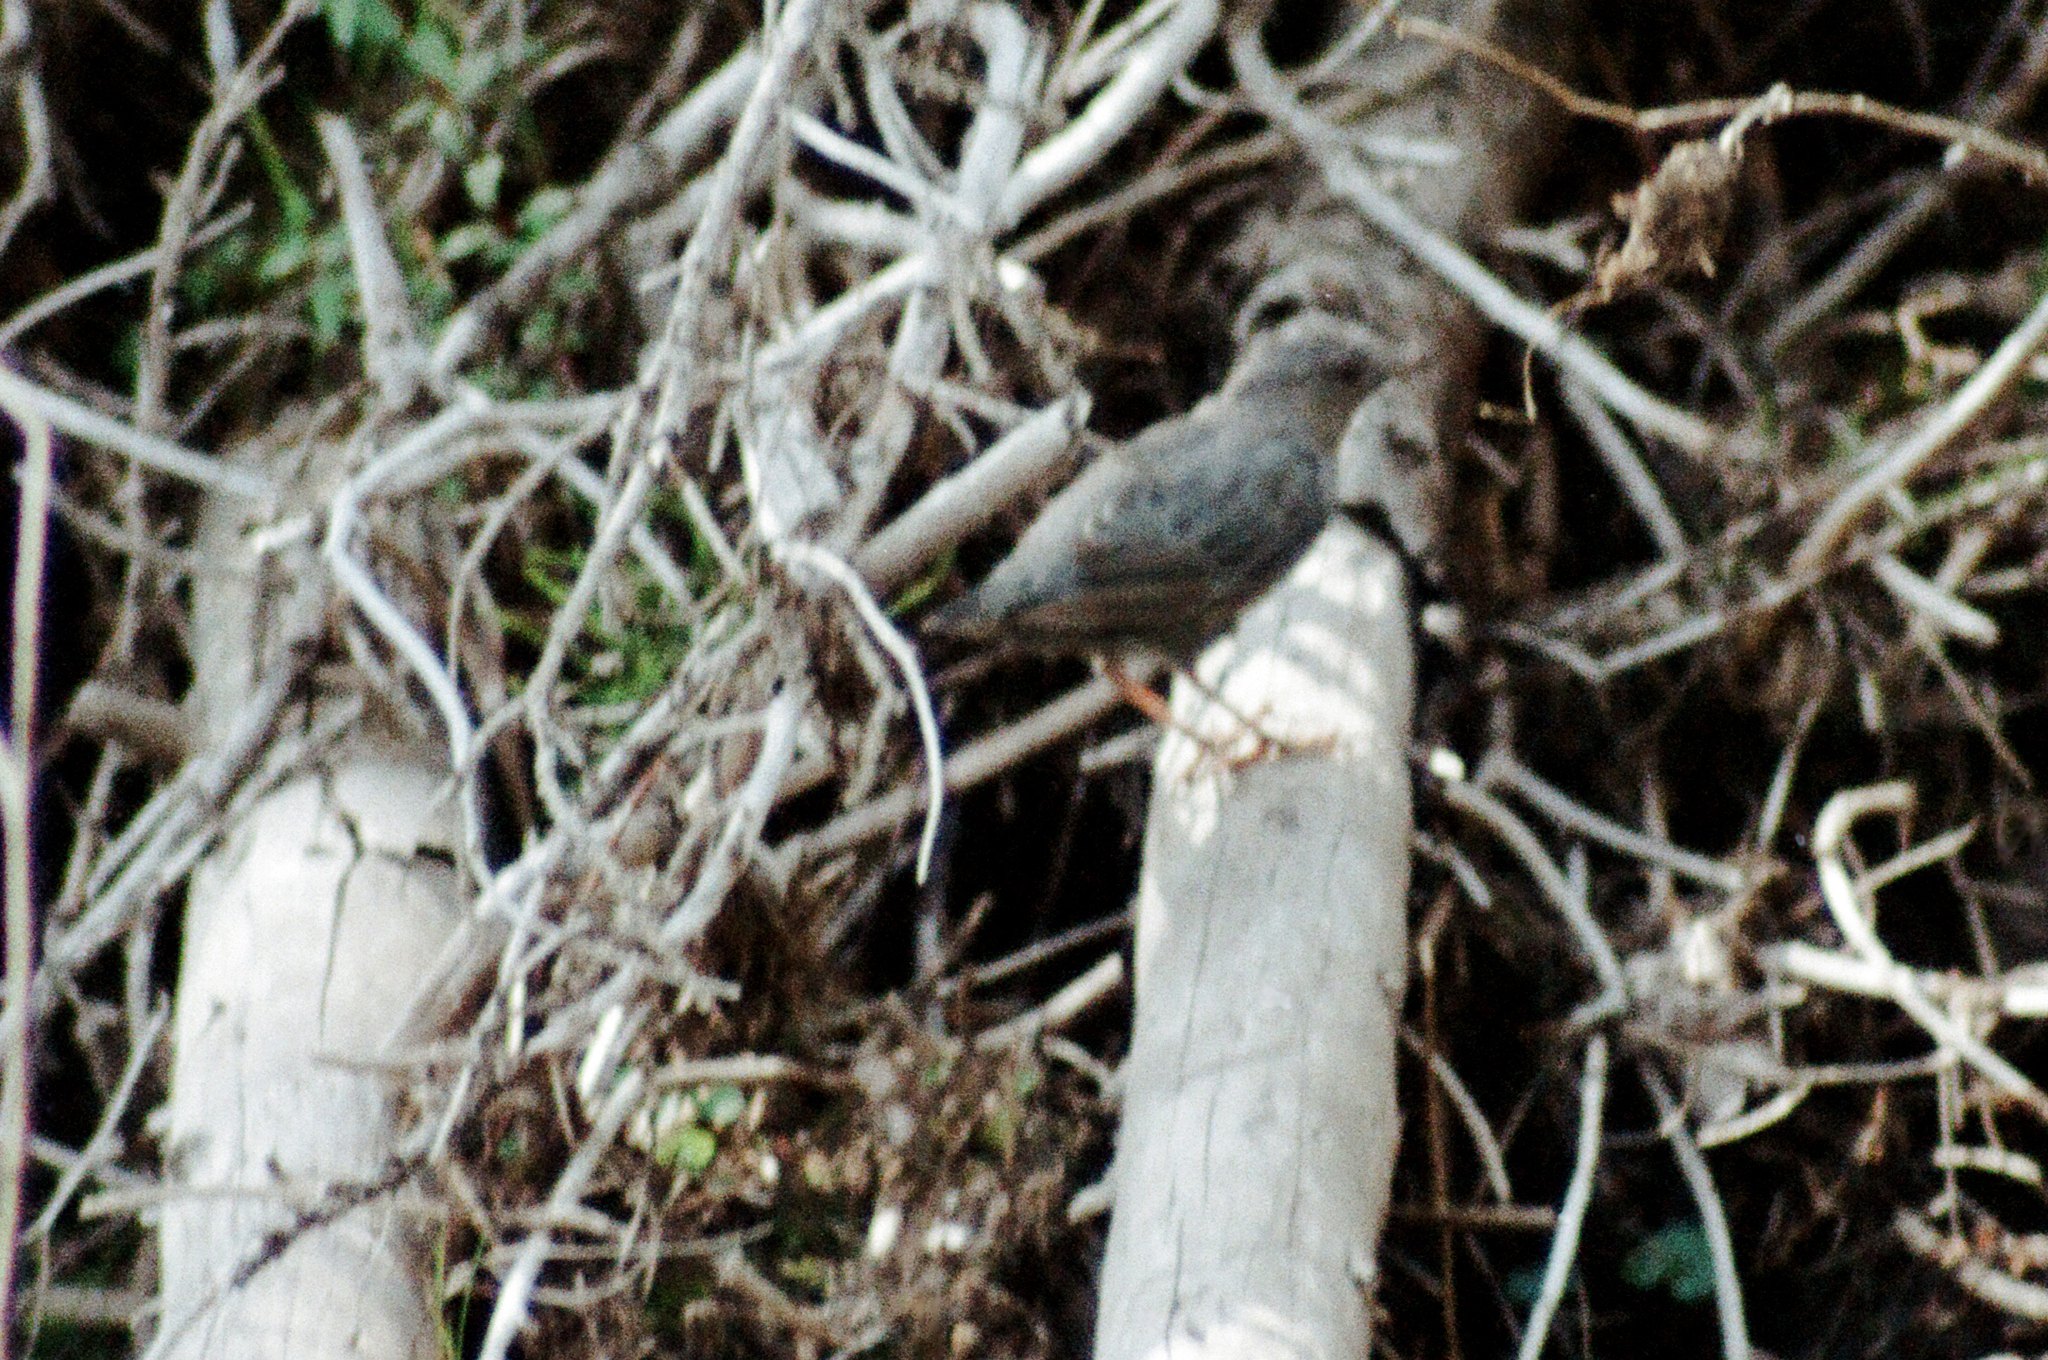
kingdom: Animalia
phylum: Chordata
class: Aves
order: Passeriformes
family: Cinclidae
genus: Cinclus
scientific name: Cinclus mexicanus
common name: American dipper
